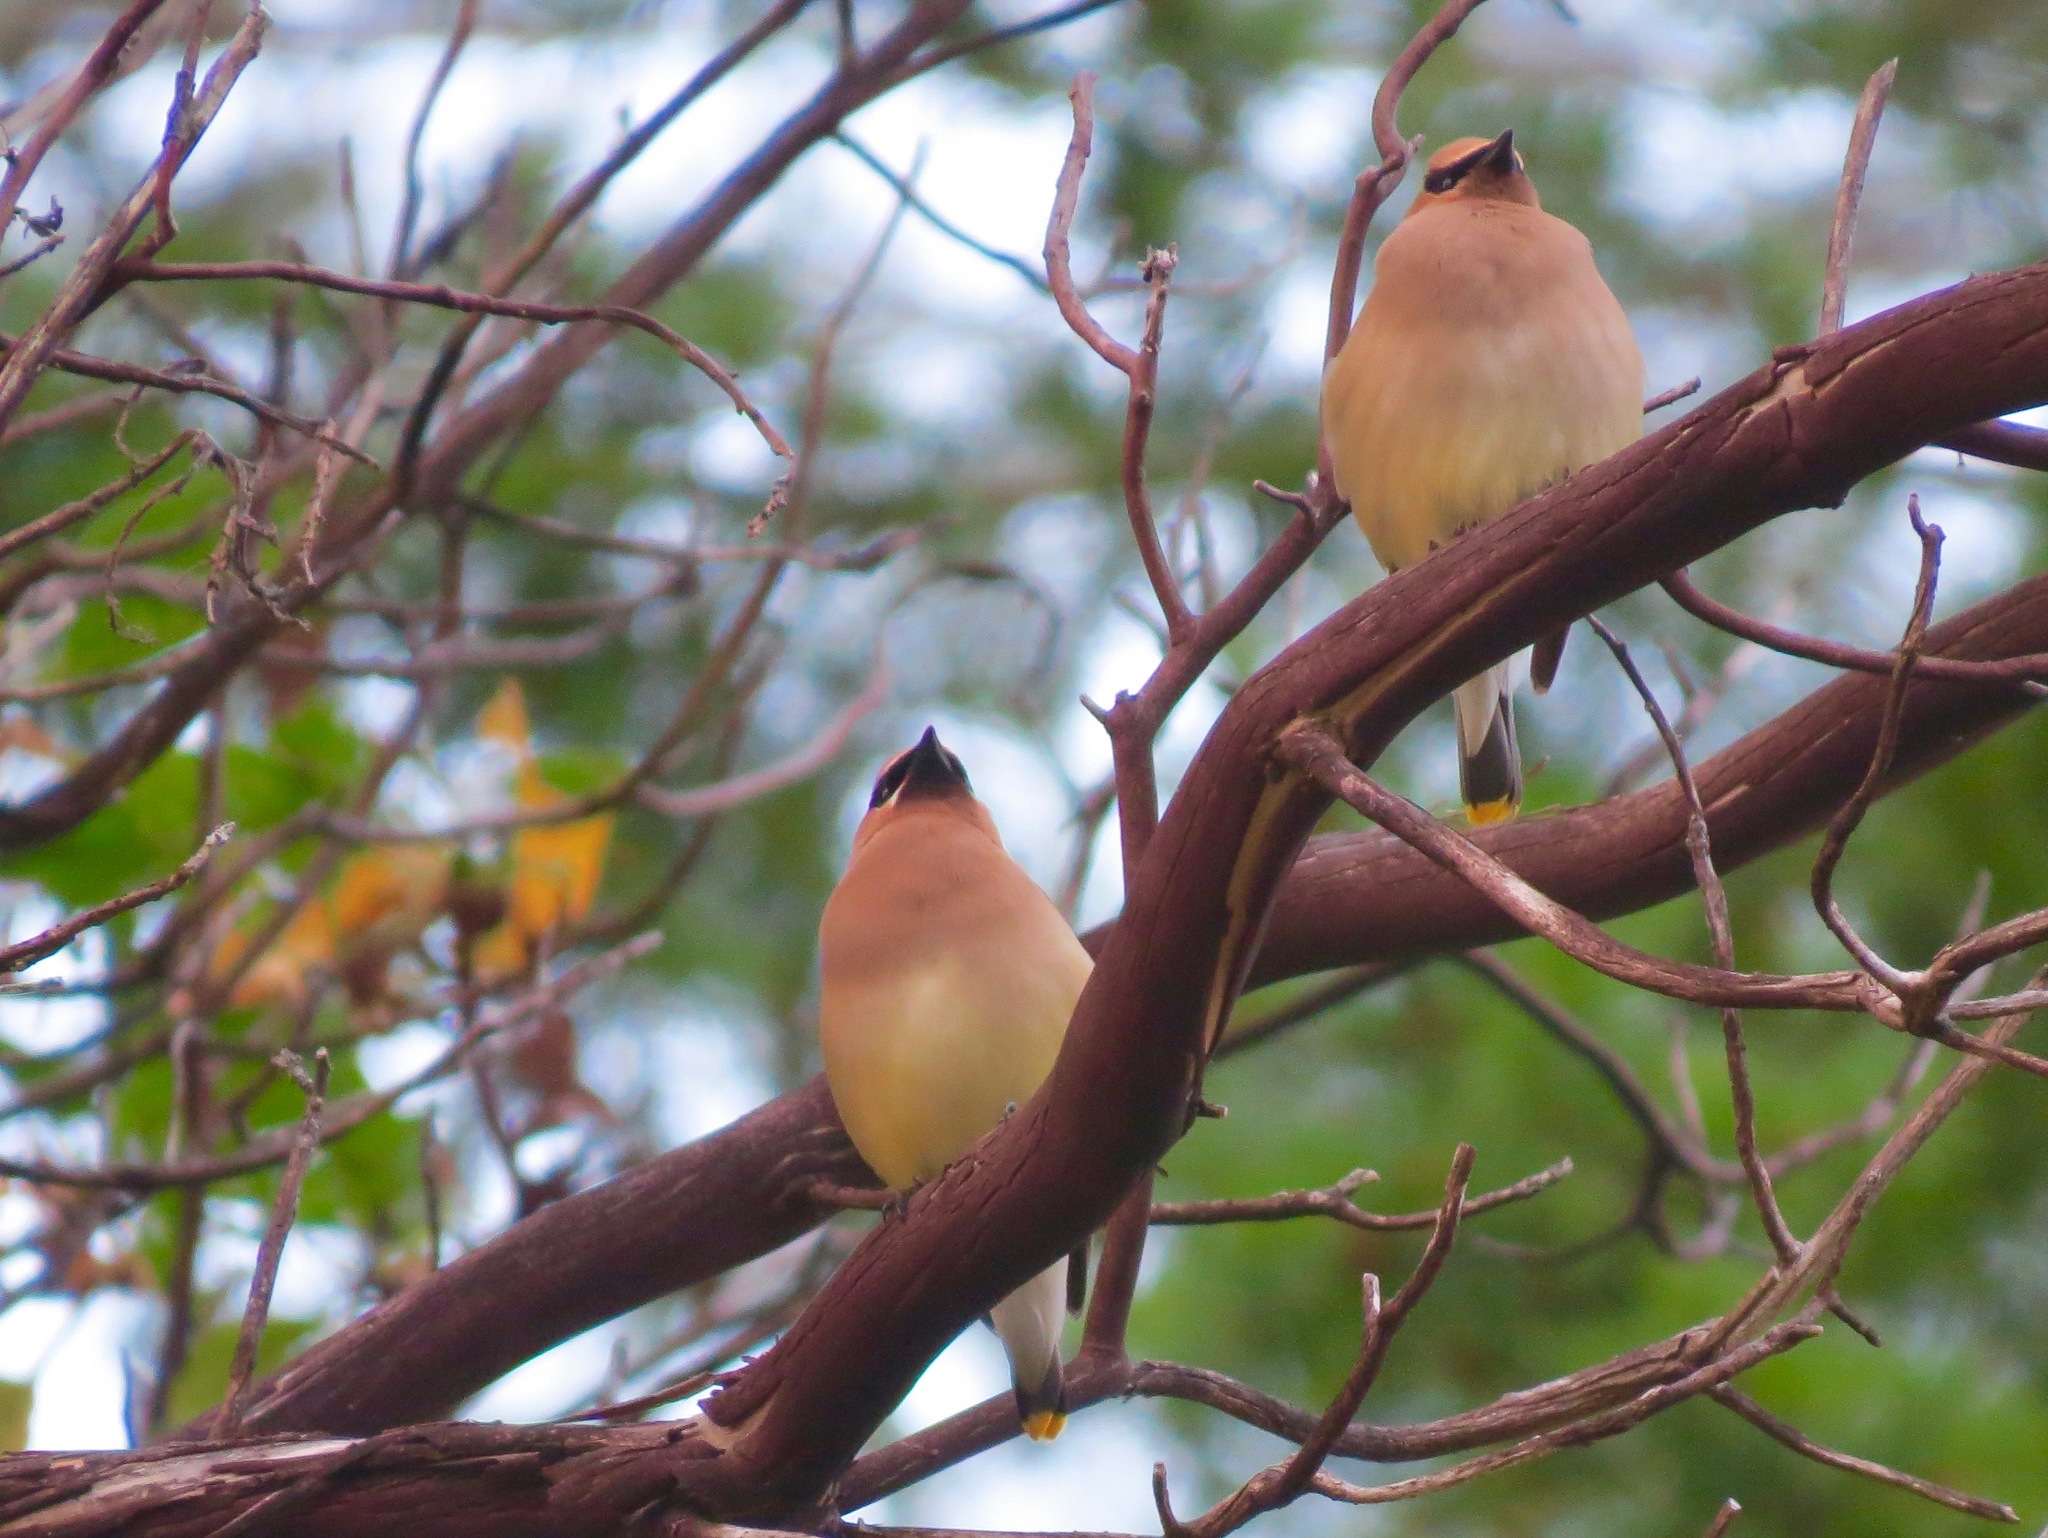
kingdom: Animalia
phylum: Chordata
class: Aves
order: Passeriformes
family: Bombycillidae
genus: Bombycilla
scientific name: Bombycilla cedrorum
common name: Cedar waxwing
